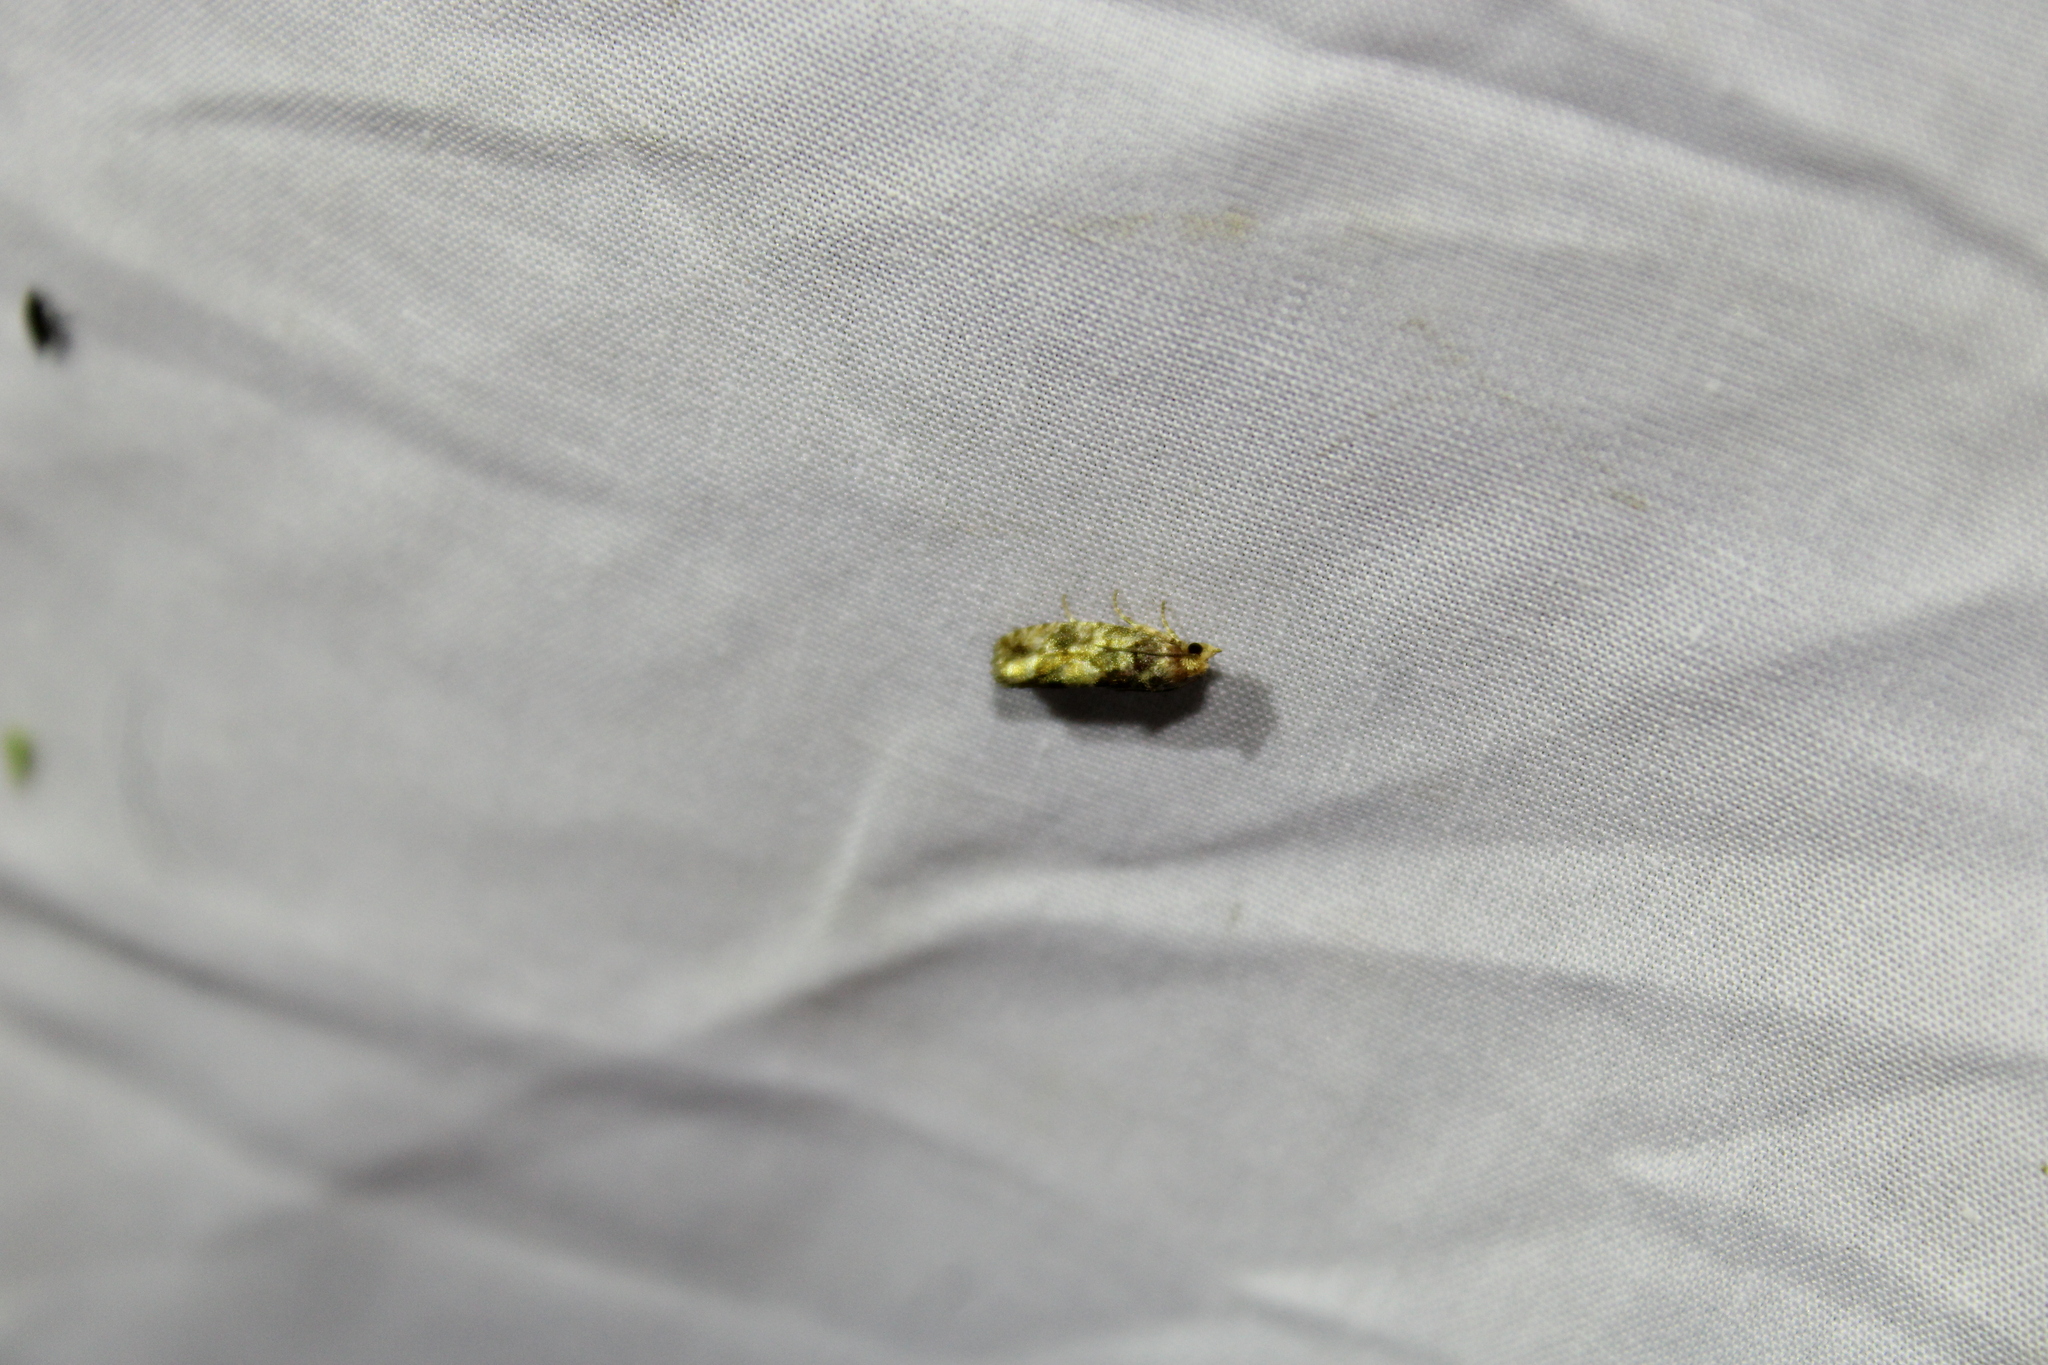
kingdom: Animalia
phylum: Arthropoda
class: Insecta
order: Lepidoptera
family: Tortricidae
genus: Eucopina
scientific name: Eucopina tocullionana
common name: White pinecone borer moth
